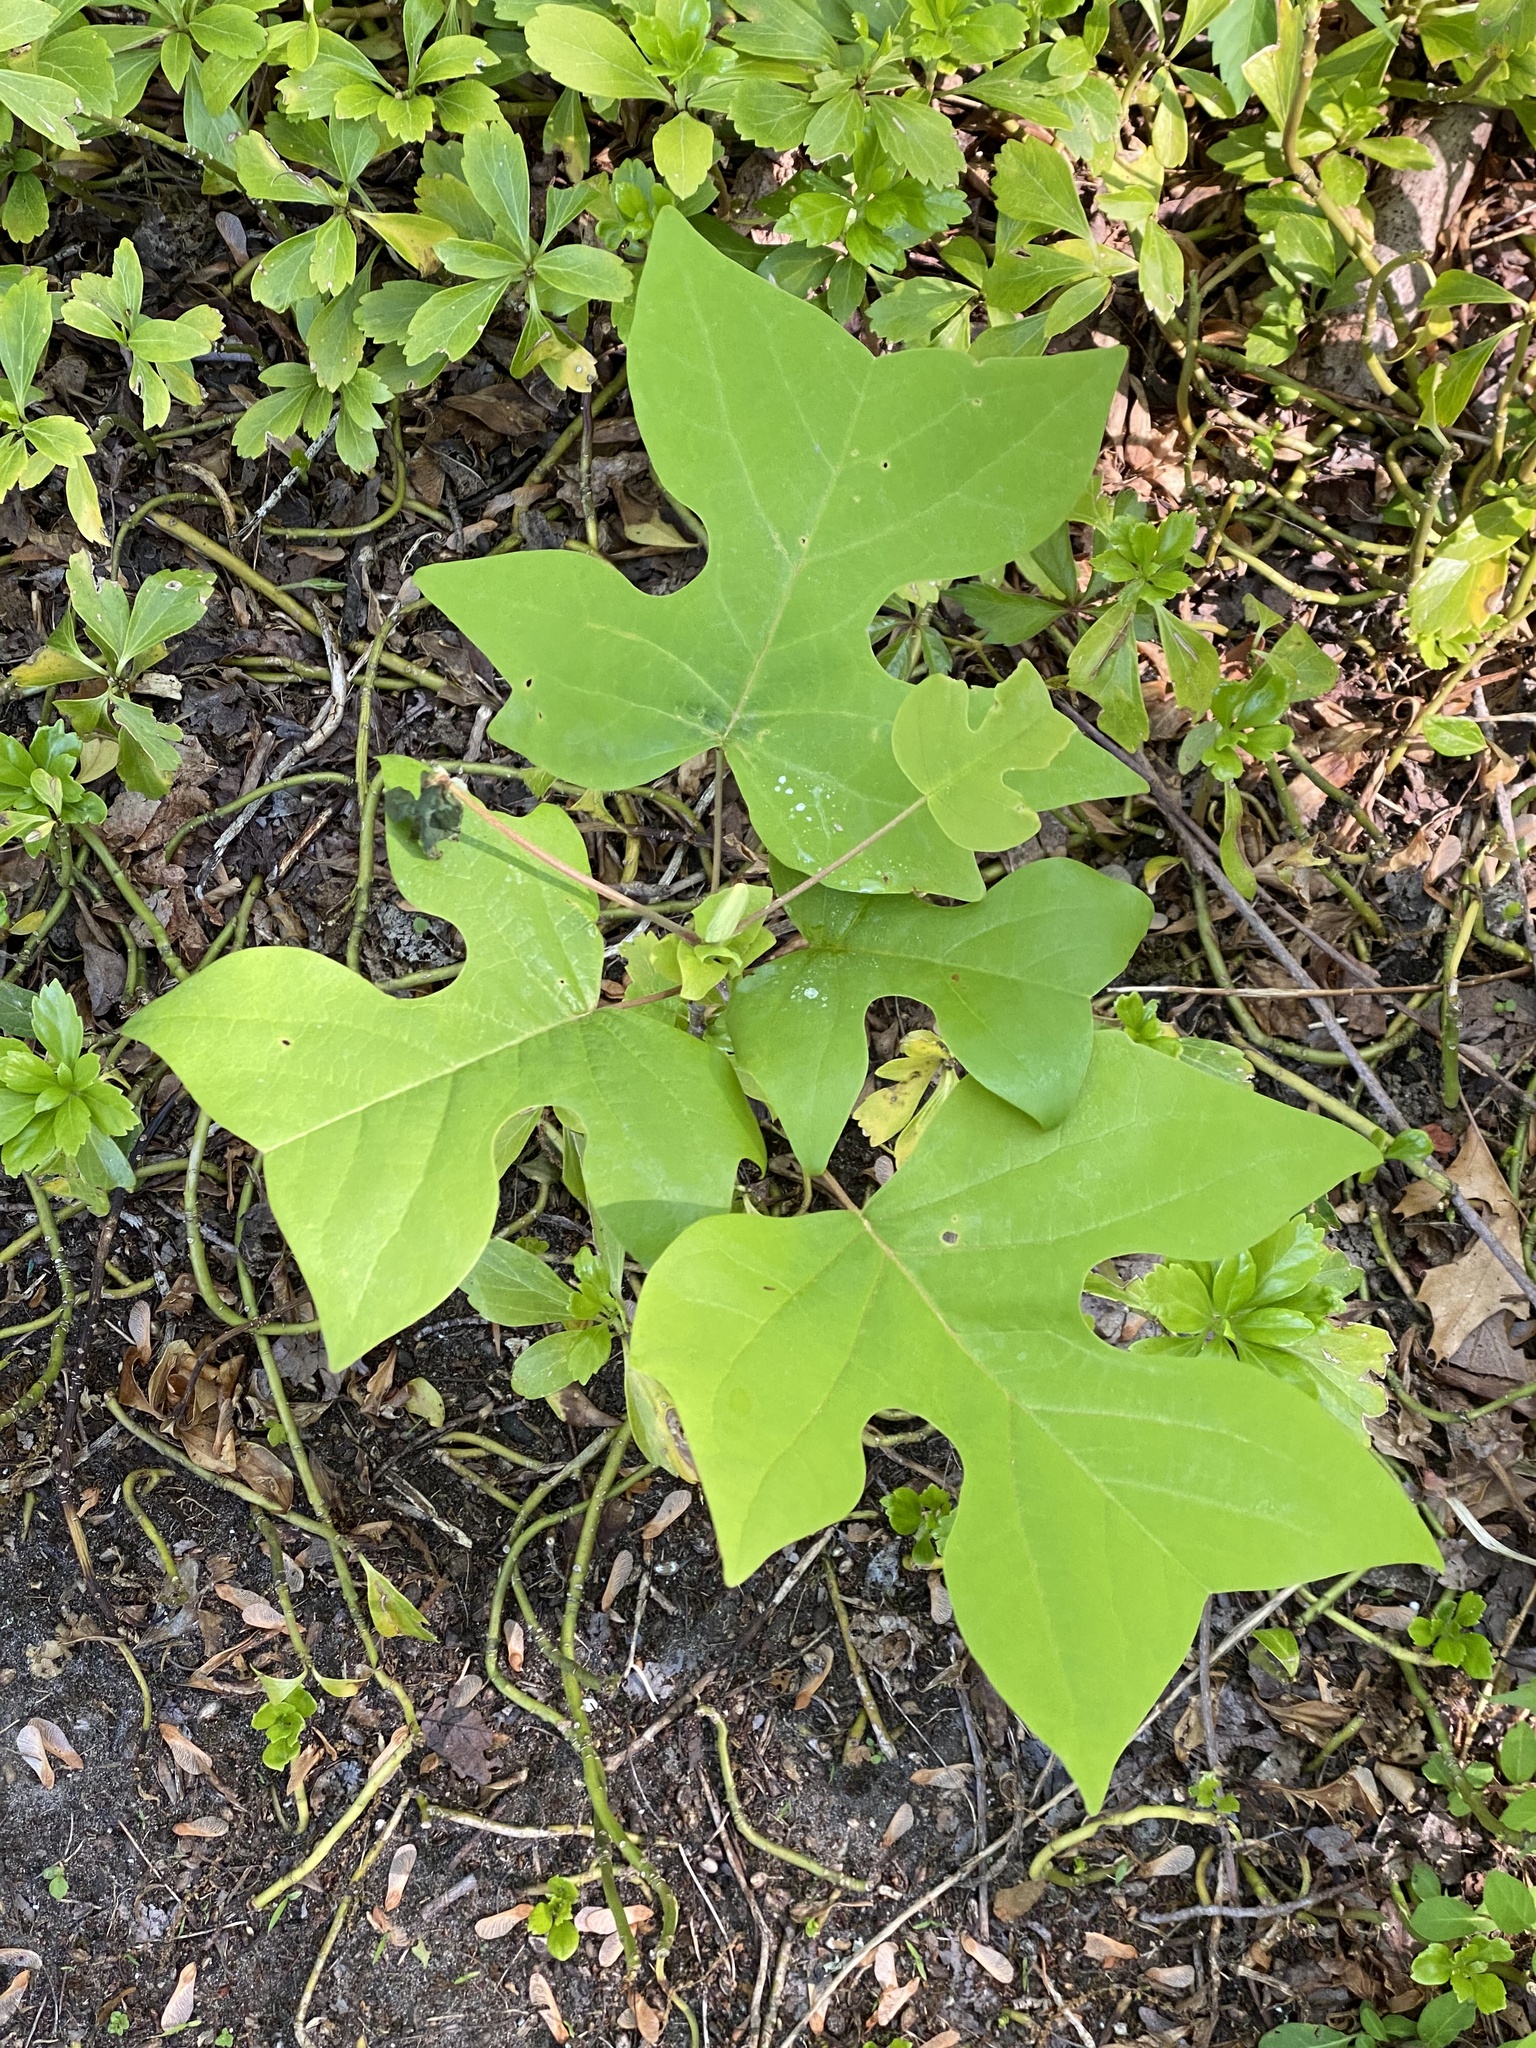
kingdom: Plantae
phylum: Tracheophyta
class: Magnoliopsida
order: Magnoliales
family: Magnoliaceae
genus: Liriodendron
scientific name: Liriodendron tulipifera
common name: Tulip tree
